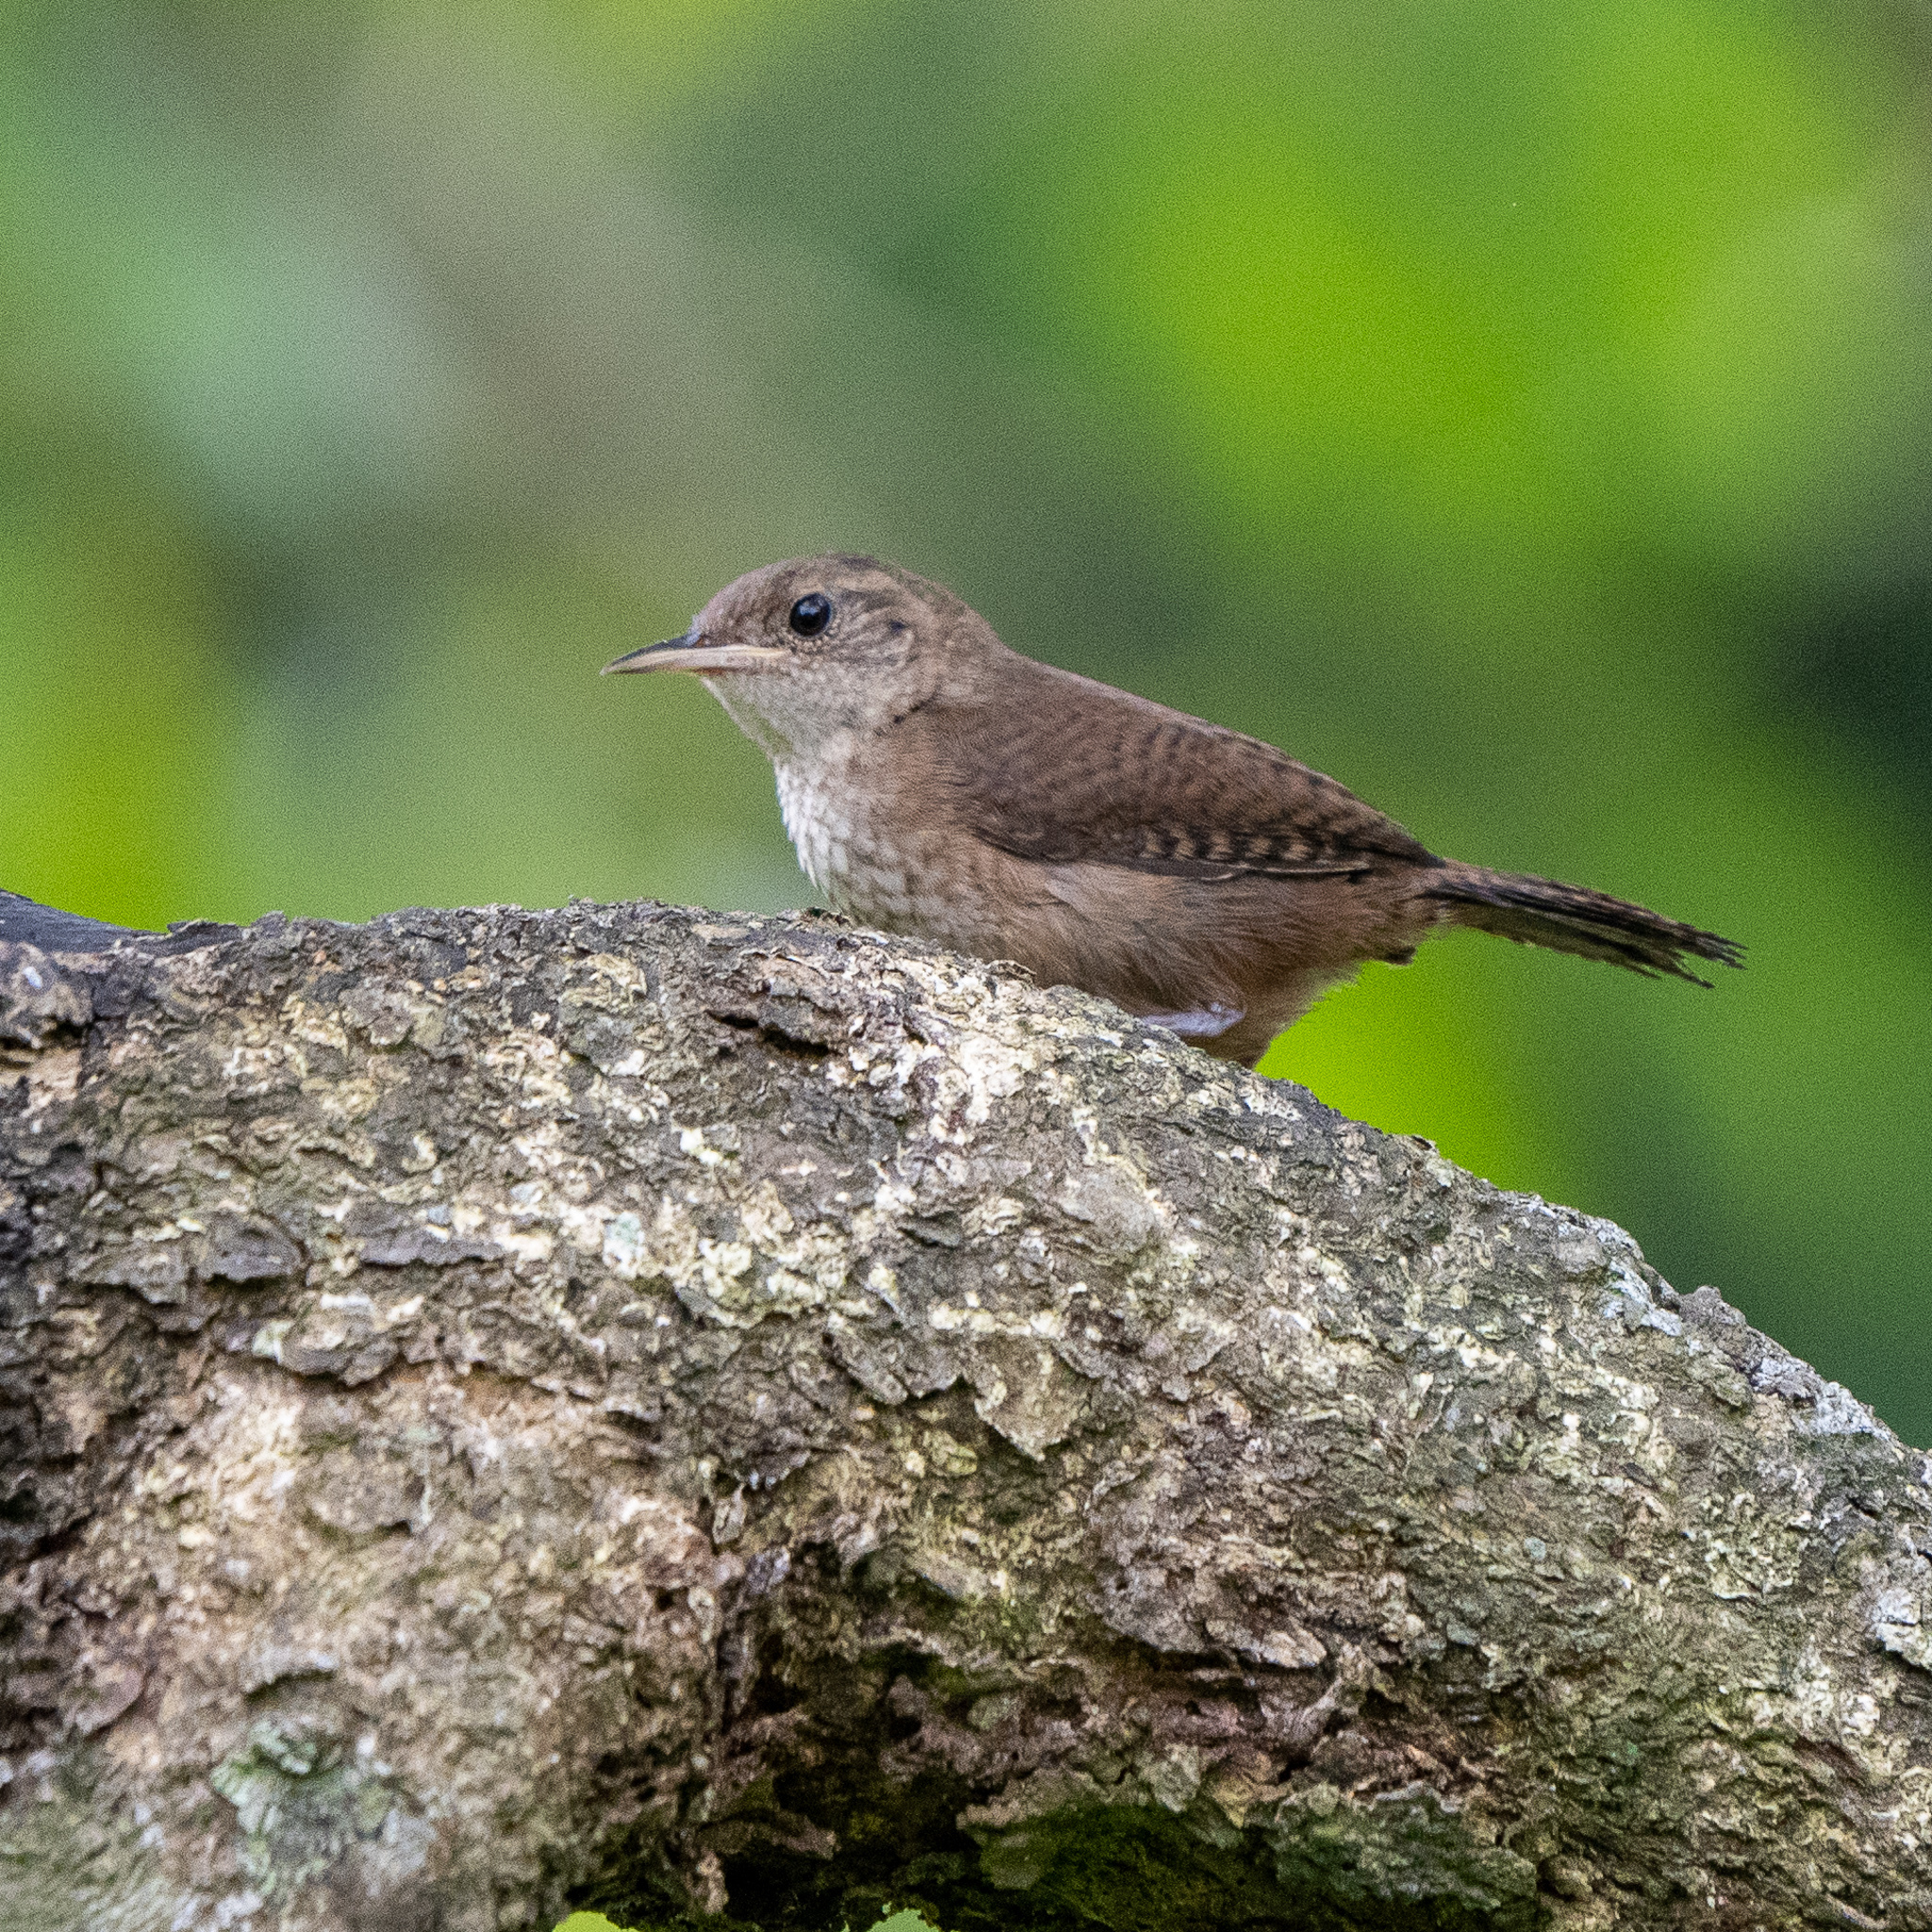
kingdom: Animalia
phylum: Chordata
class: Aves
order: Passeriformes
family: Troglodytidae
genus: Troglodytes
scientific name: Troglodytes aedon
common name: House wren
